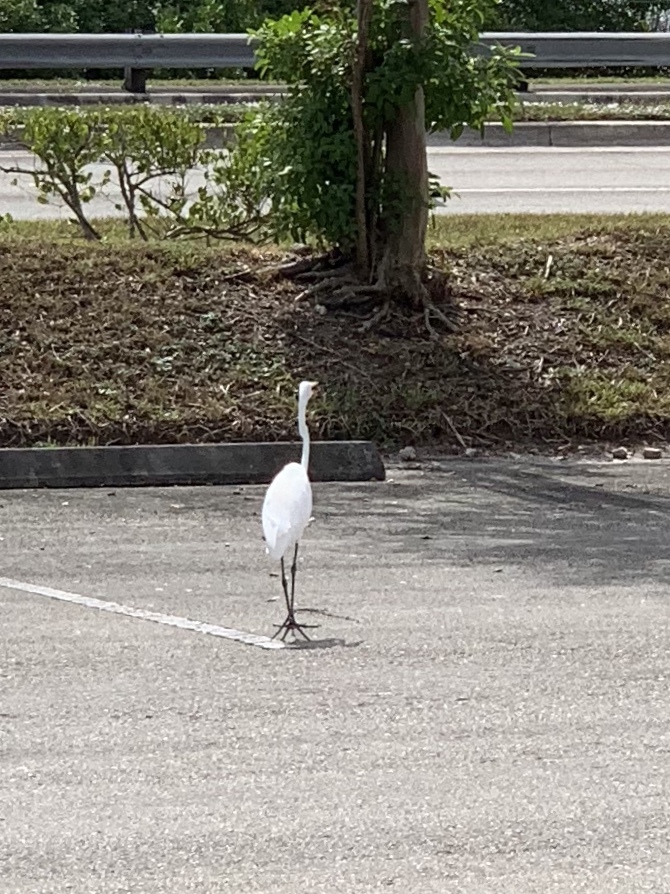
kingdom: Animalia
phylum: Chordata
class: Aves
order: Pelecaniformes
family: Ardeidae
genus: Ardea
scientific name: Ardea alba
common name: Great egret
